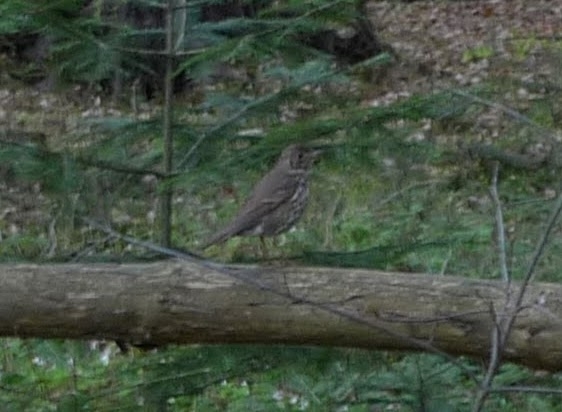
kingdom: Animalia
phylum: Chordata
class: Aves
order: Passeriformes
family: Turdidae
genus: Turdus
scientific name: Turdus philomelos
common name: Song thrush
